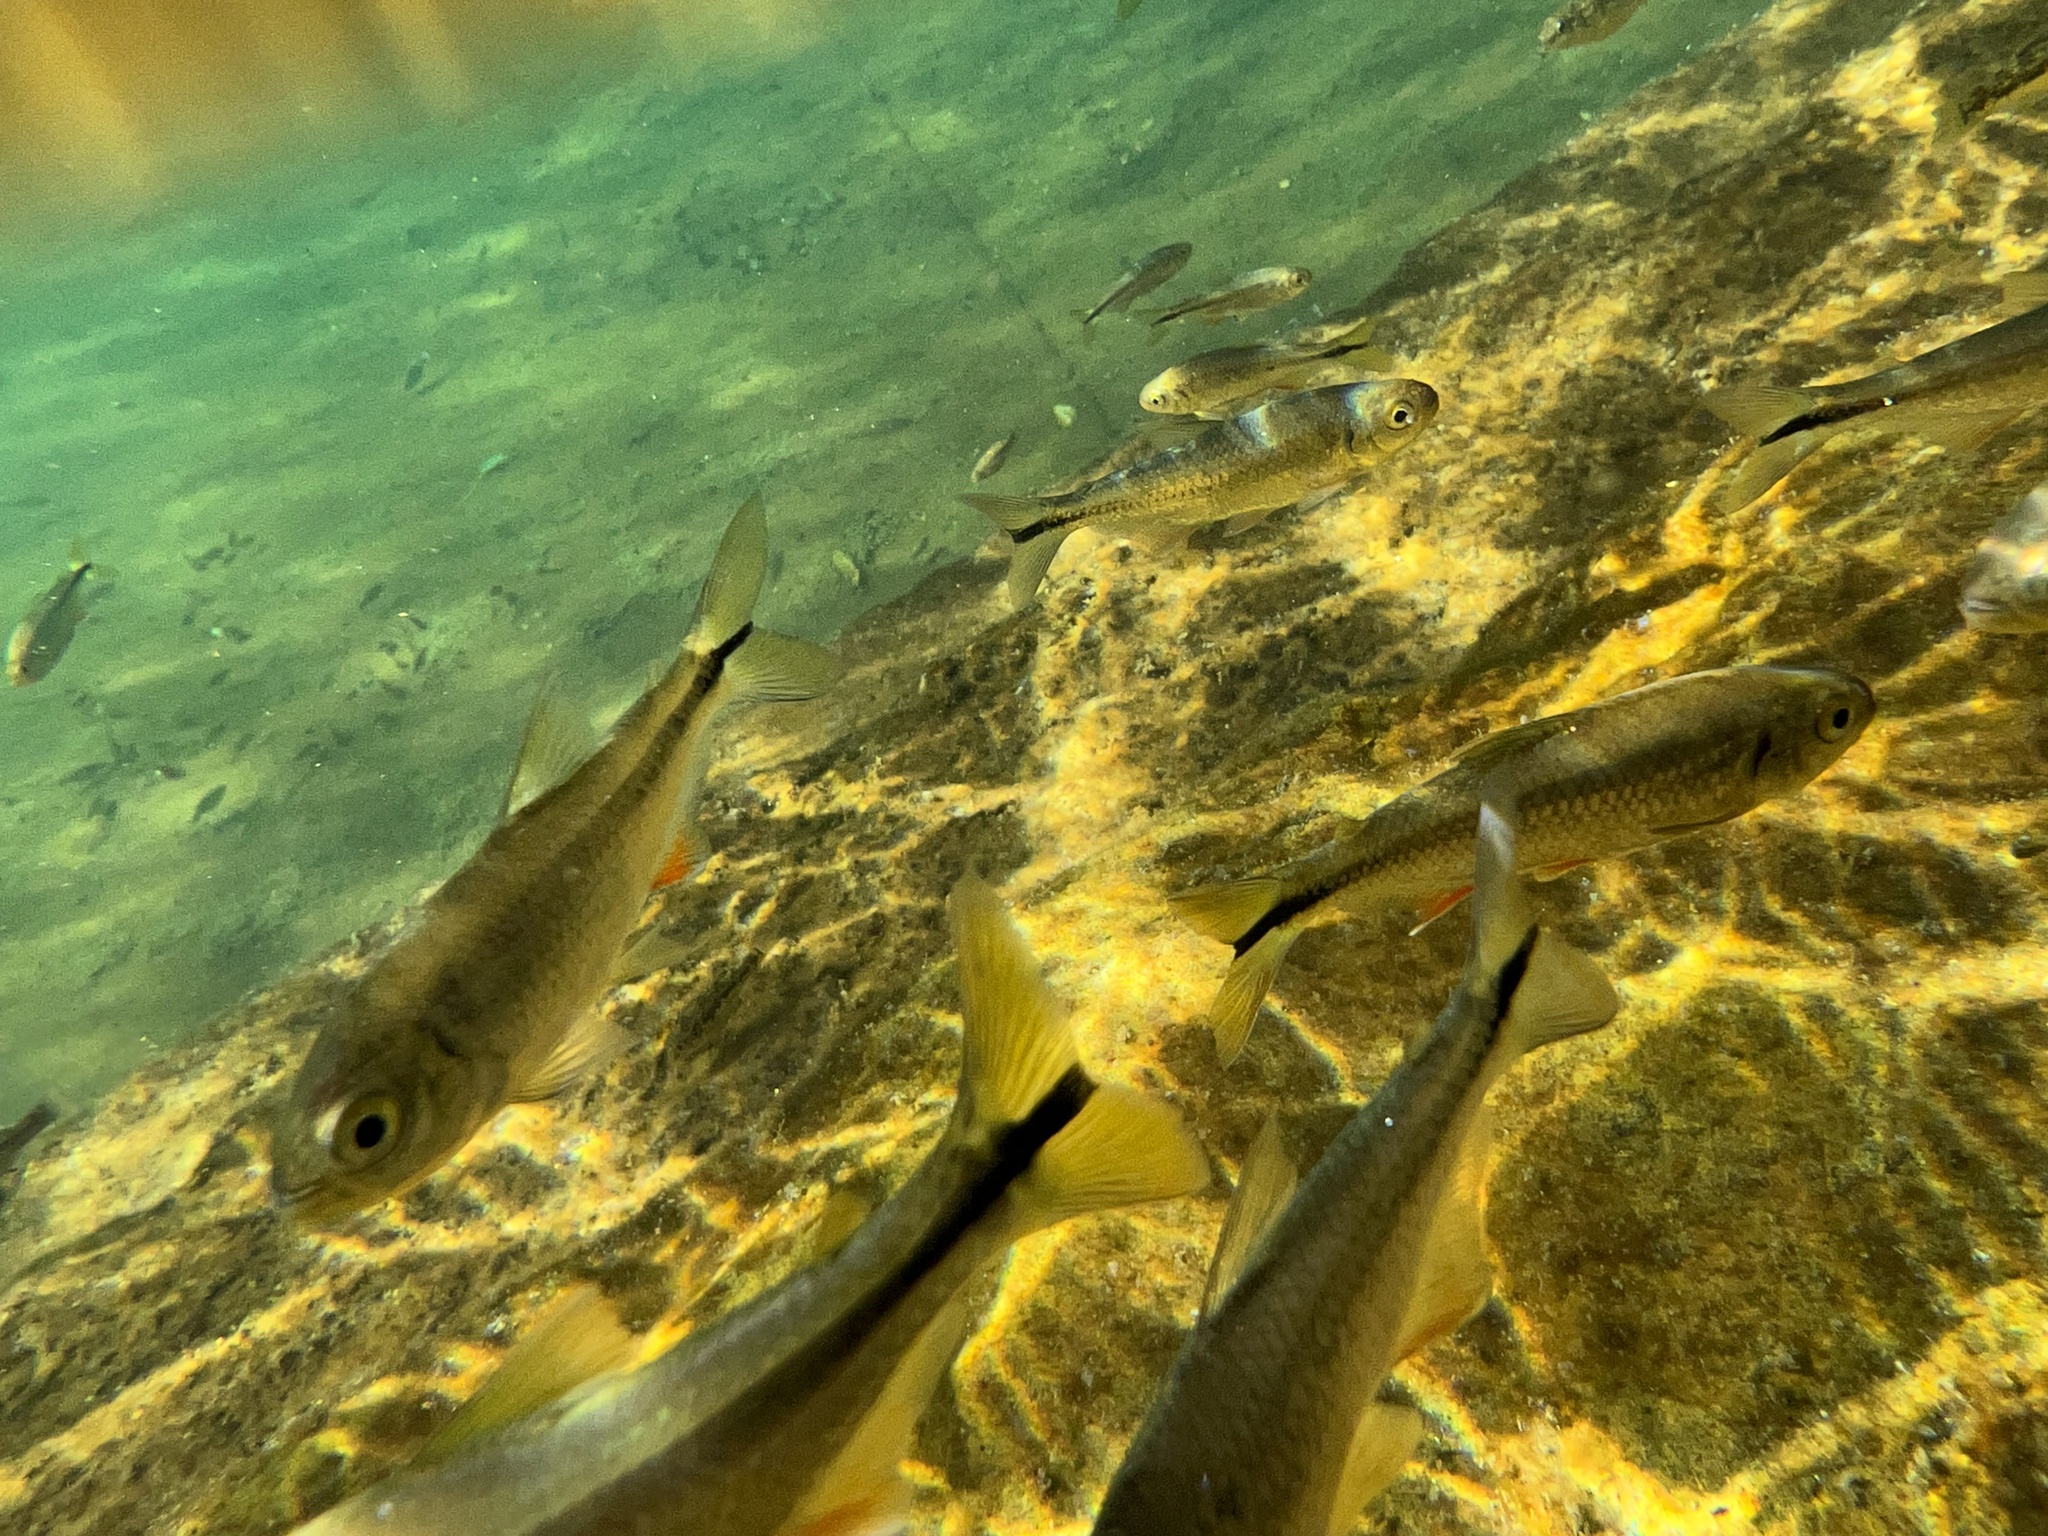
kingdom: Animalia
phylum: Chordata
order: Characiformes
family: Characidae
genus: Astyanax
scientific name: Astyanax mexicanus
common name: Mexican tetra
